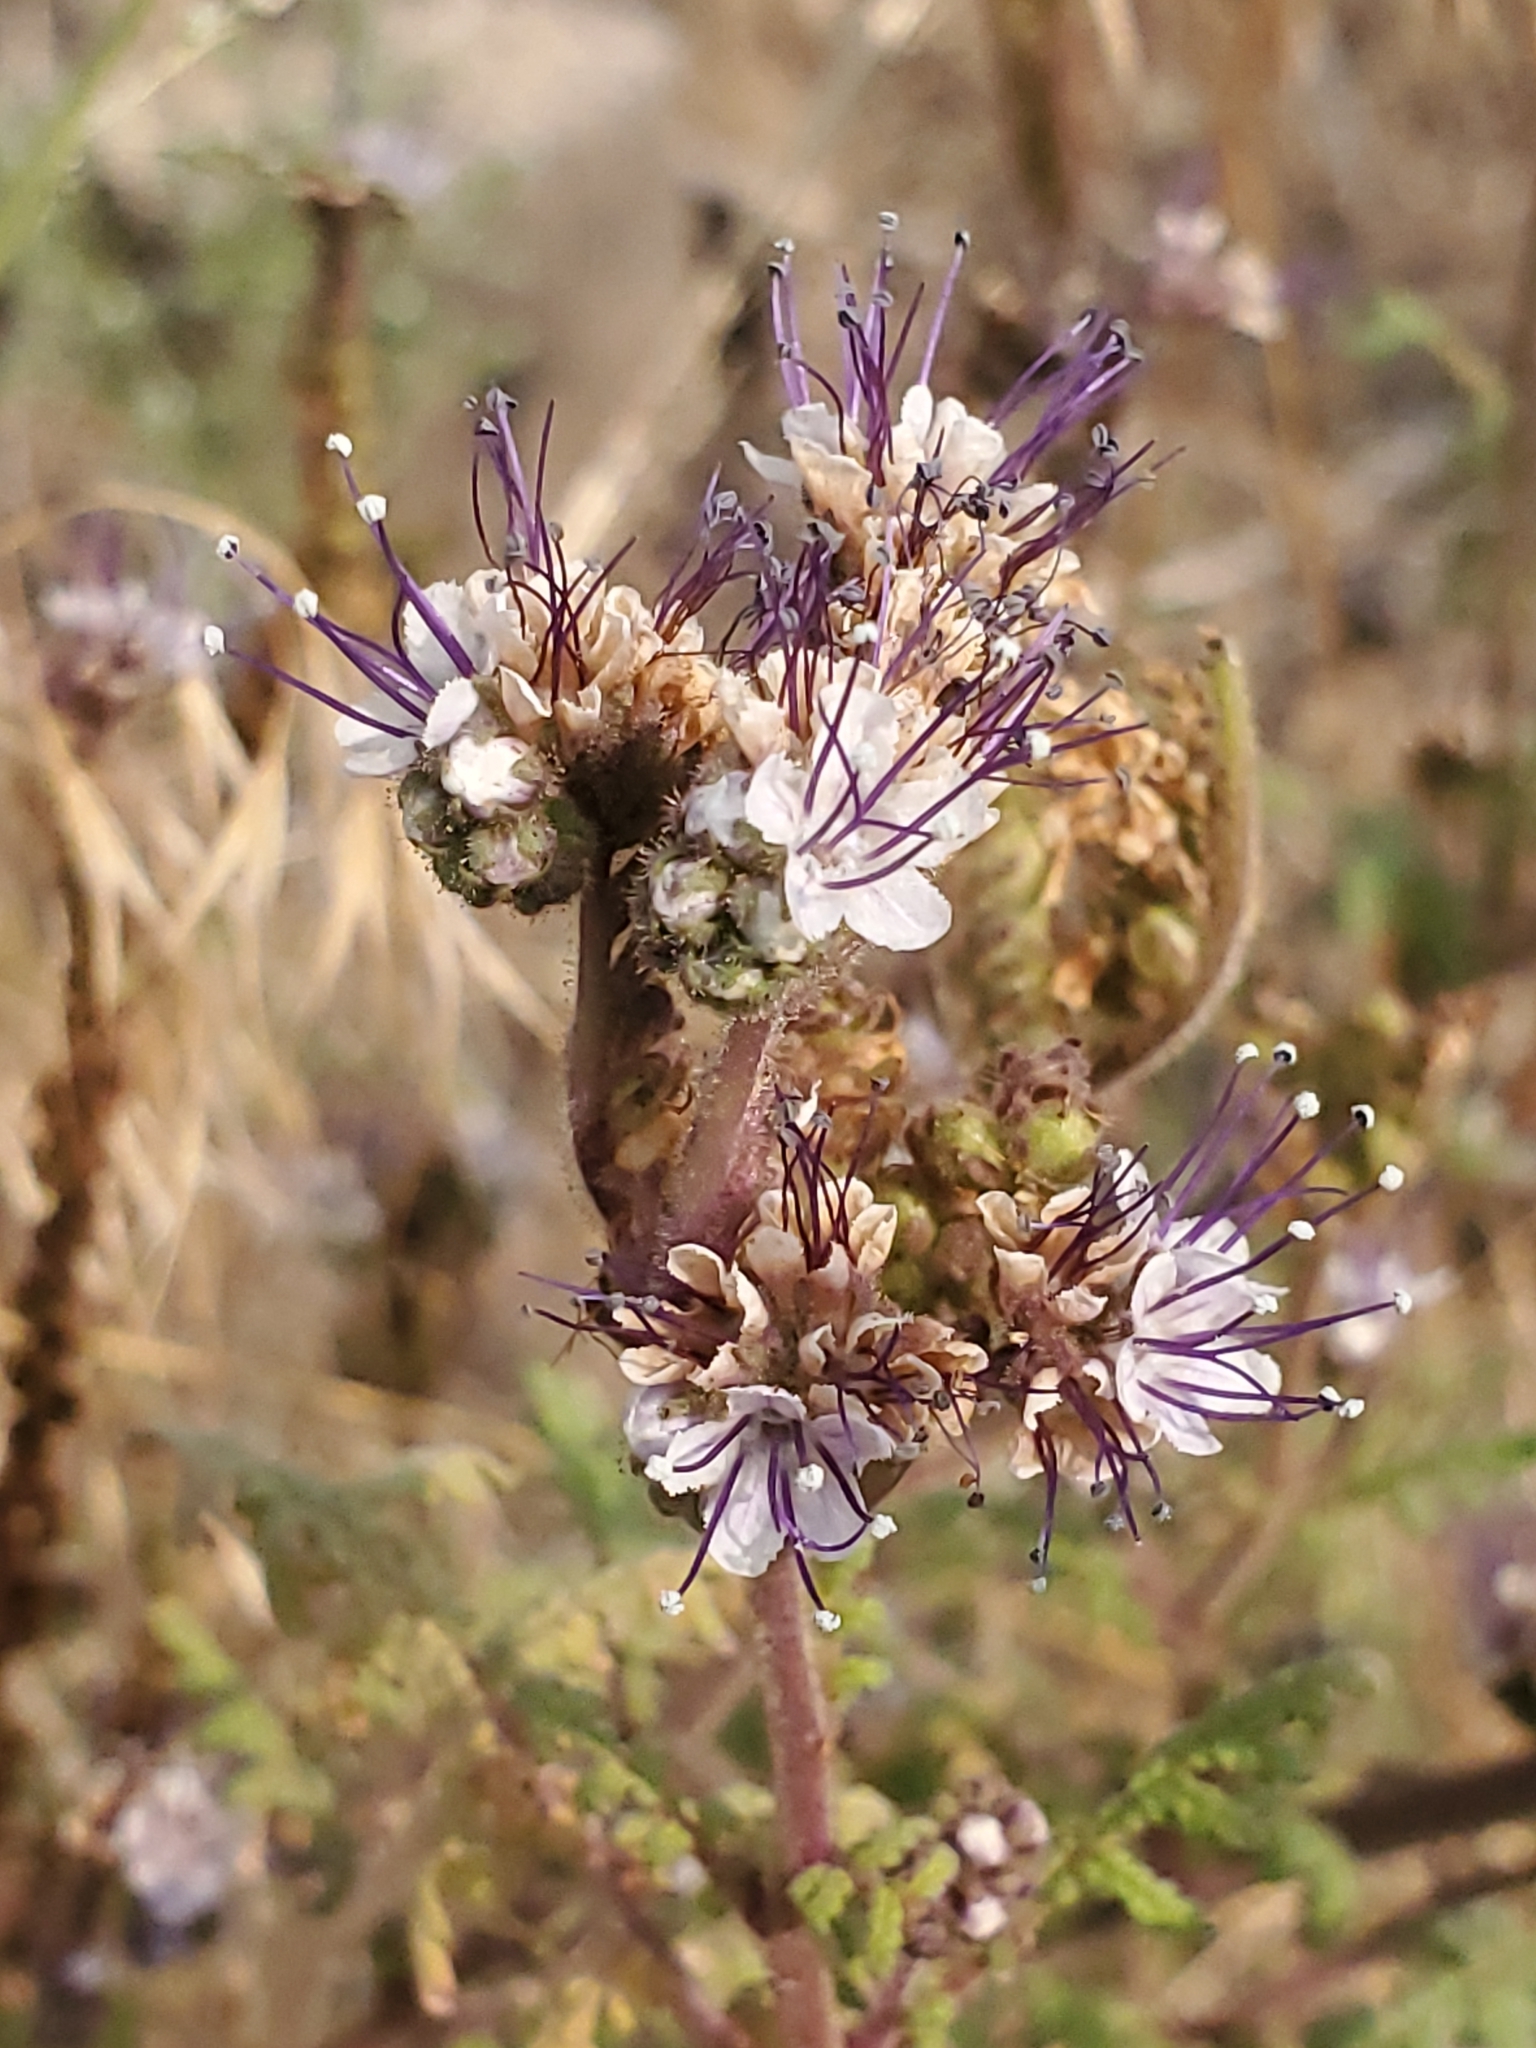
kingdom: Plantae
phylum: Tracheophyta
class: Magnoliopsida
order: Boraginales
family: Hydrophyllaceae
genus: Phacelia
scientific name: Phacelia alba
